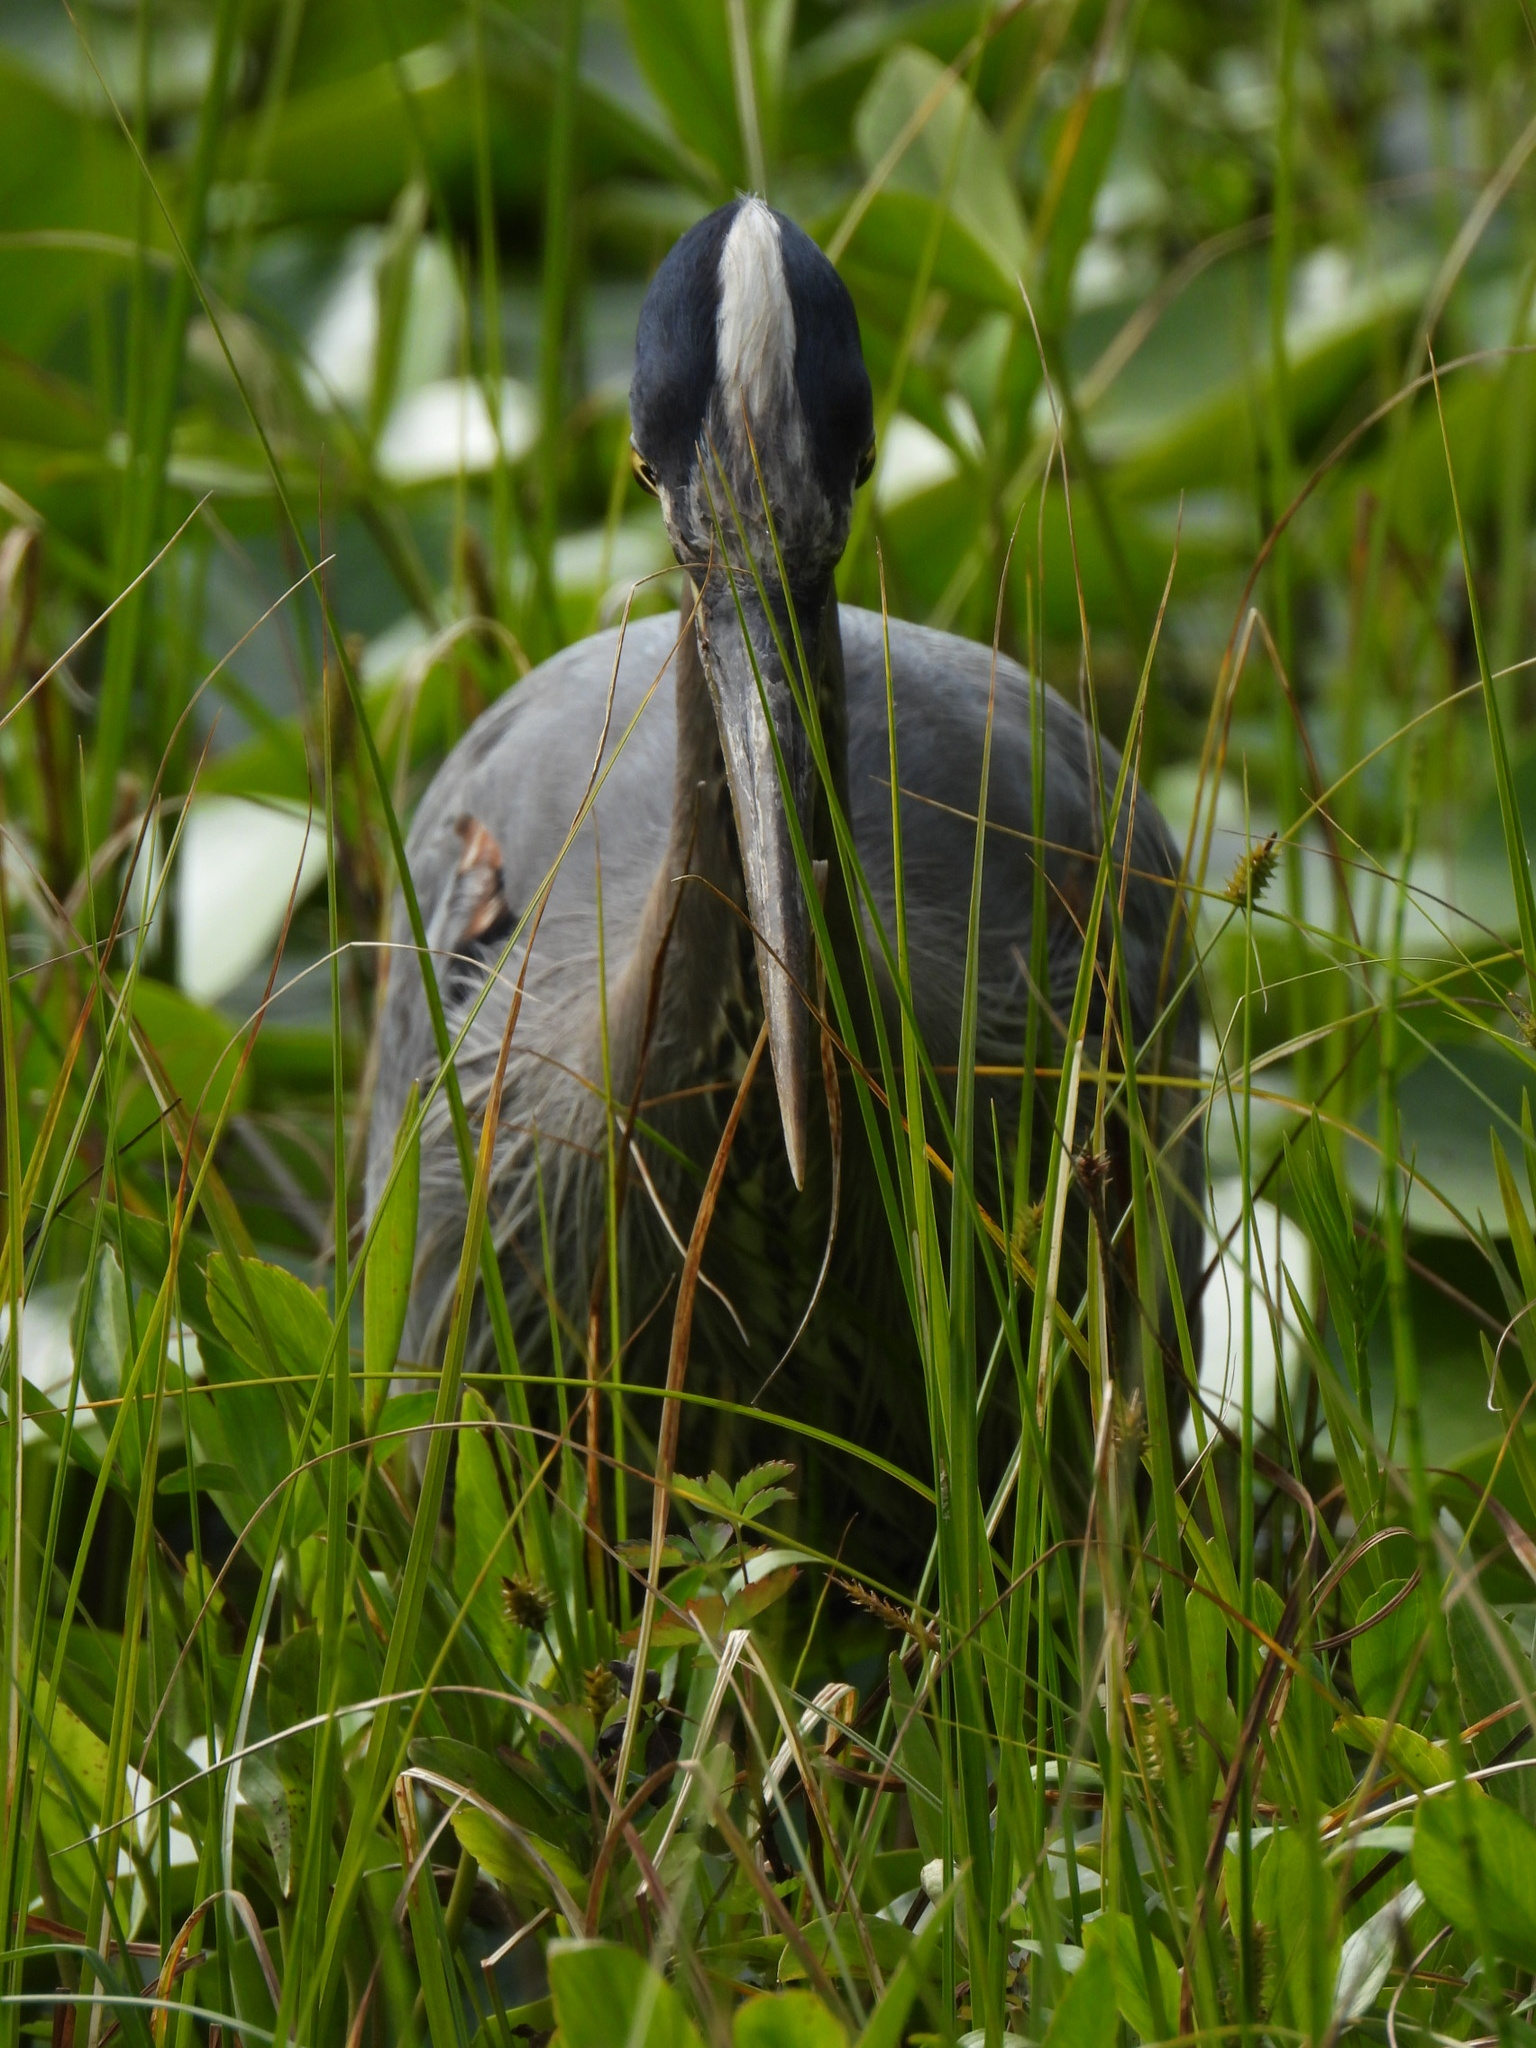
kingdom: Animalia
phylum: Chordata
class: Aves
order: Pelecaniformes
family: Ardeidae
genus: Ardea
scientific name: Ardea herodias
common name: Great blue heron
